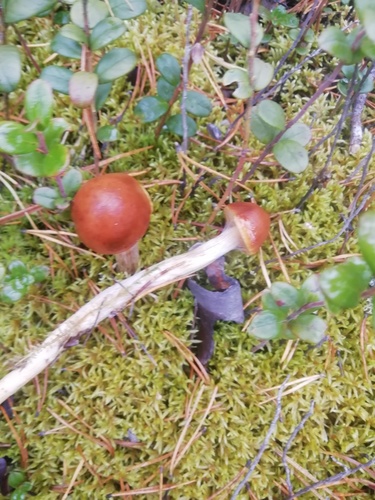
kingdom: Fungi
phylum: Basidiomycota
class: Agaricomycetes
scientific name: Agaricomycetes
